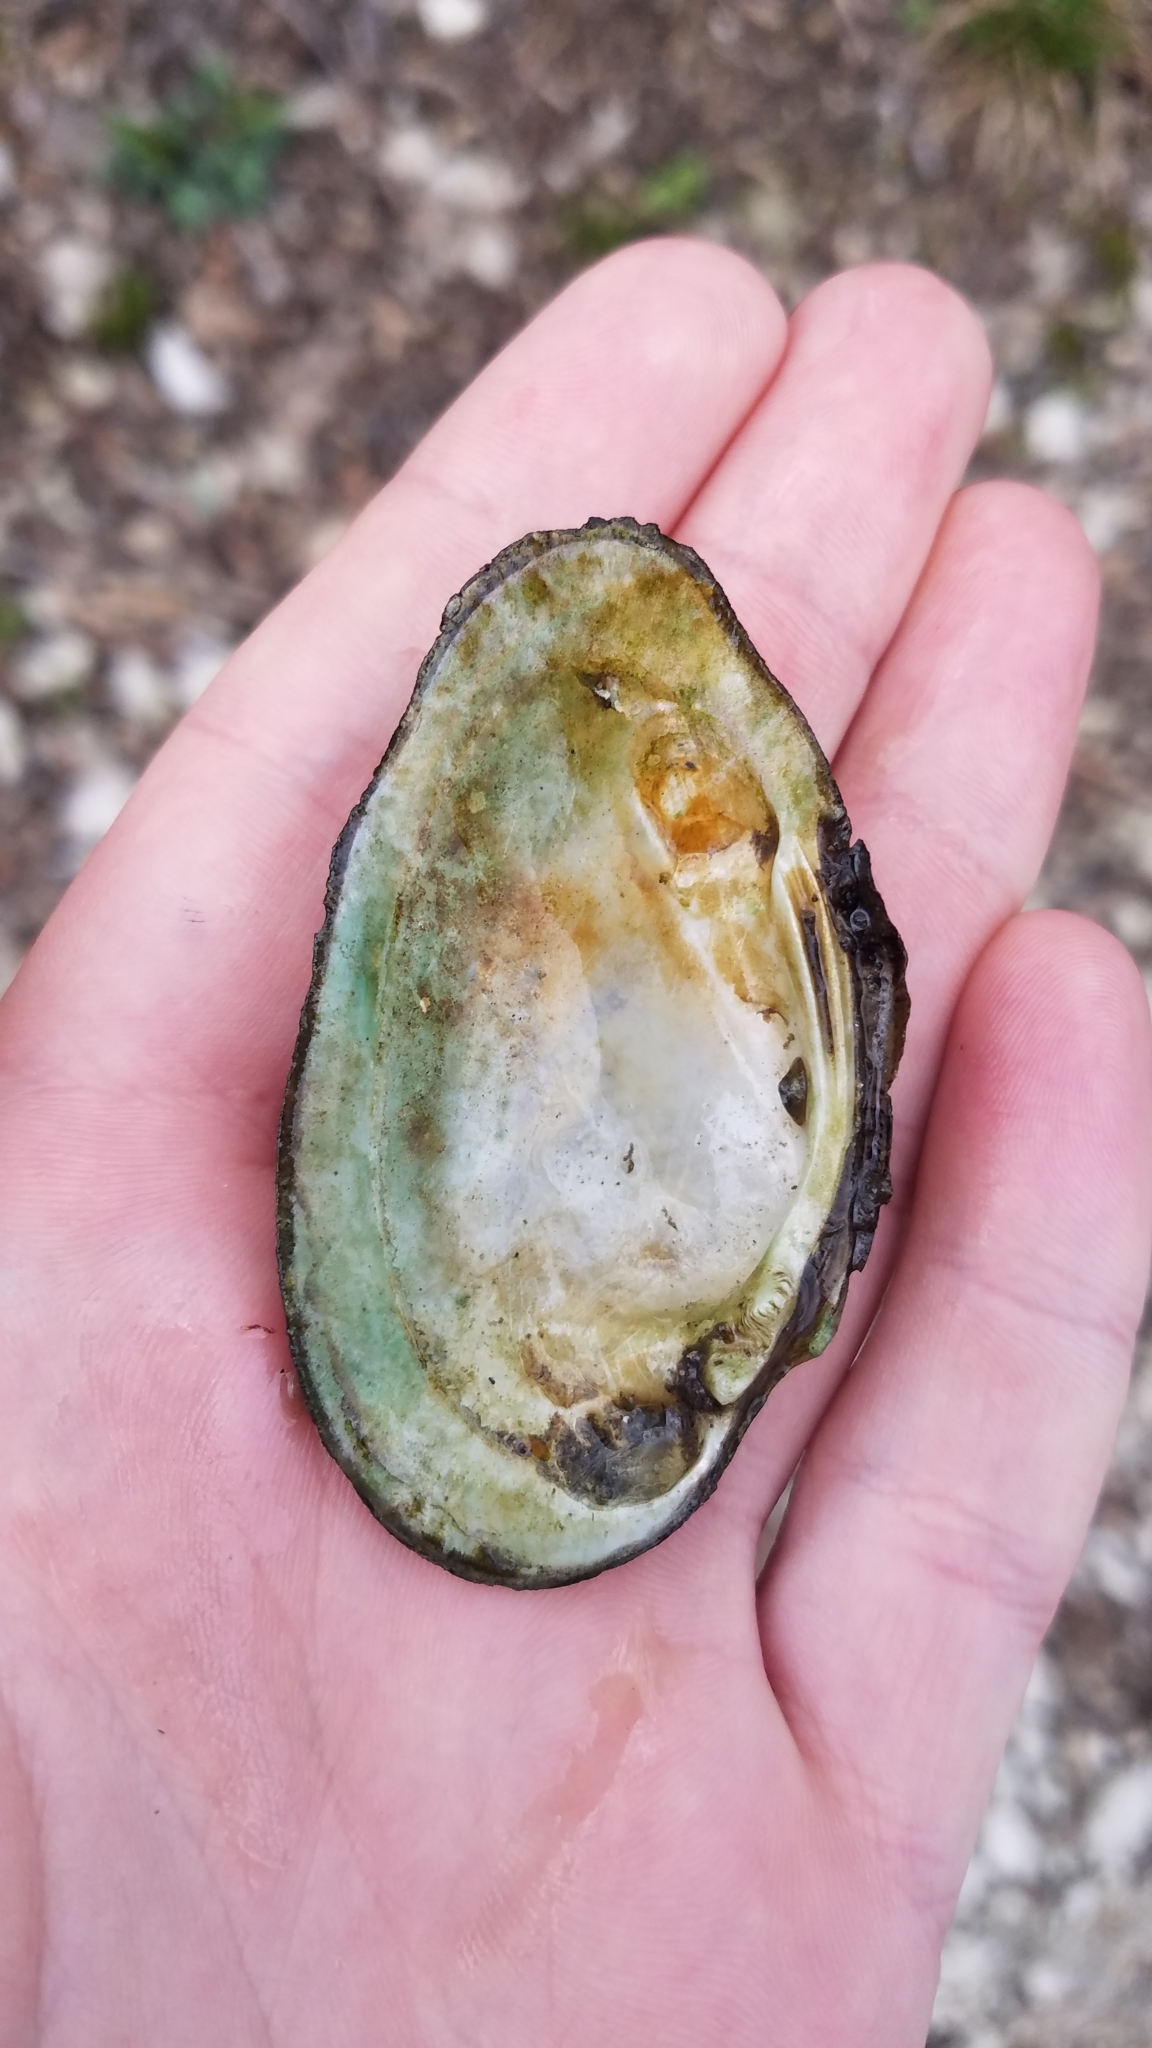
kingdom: Animalia
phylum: Mollusca
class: Bivalvia
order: Unionida
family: Unionidae
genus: Venustaconcha
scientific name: Venustaconcha ellipsiformis
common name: Ellipse
